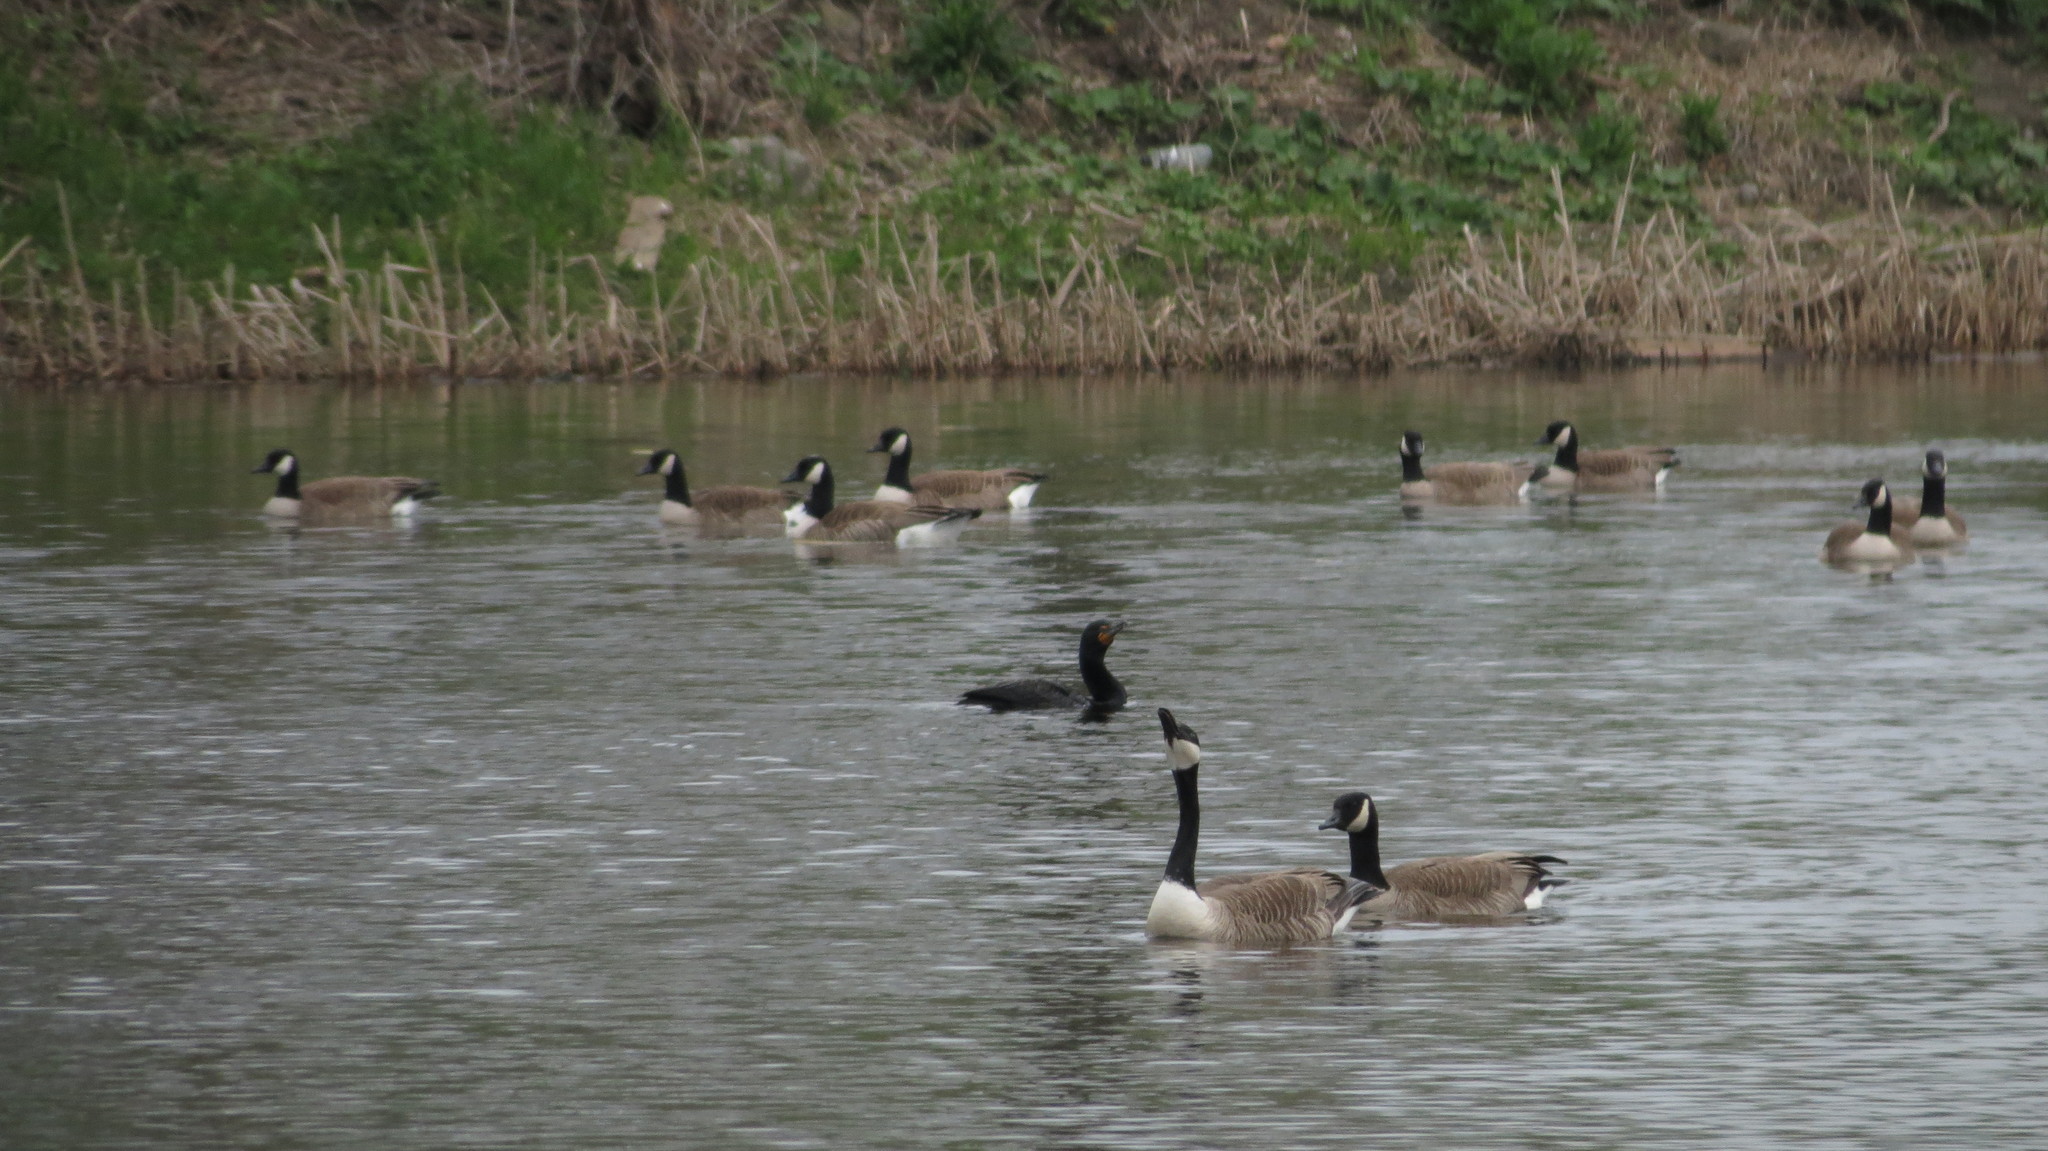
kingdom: Animalia
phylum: Chordata
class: Aves
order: Anseriformes
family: Anatidae
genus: Branta
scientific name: Branta canadensis
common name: Canada goose
